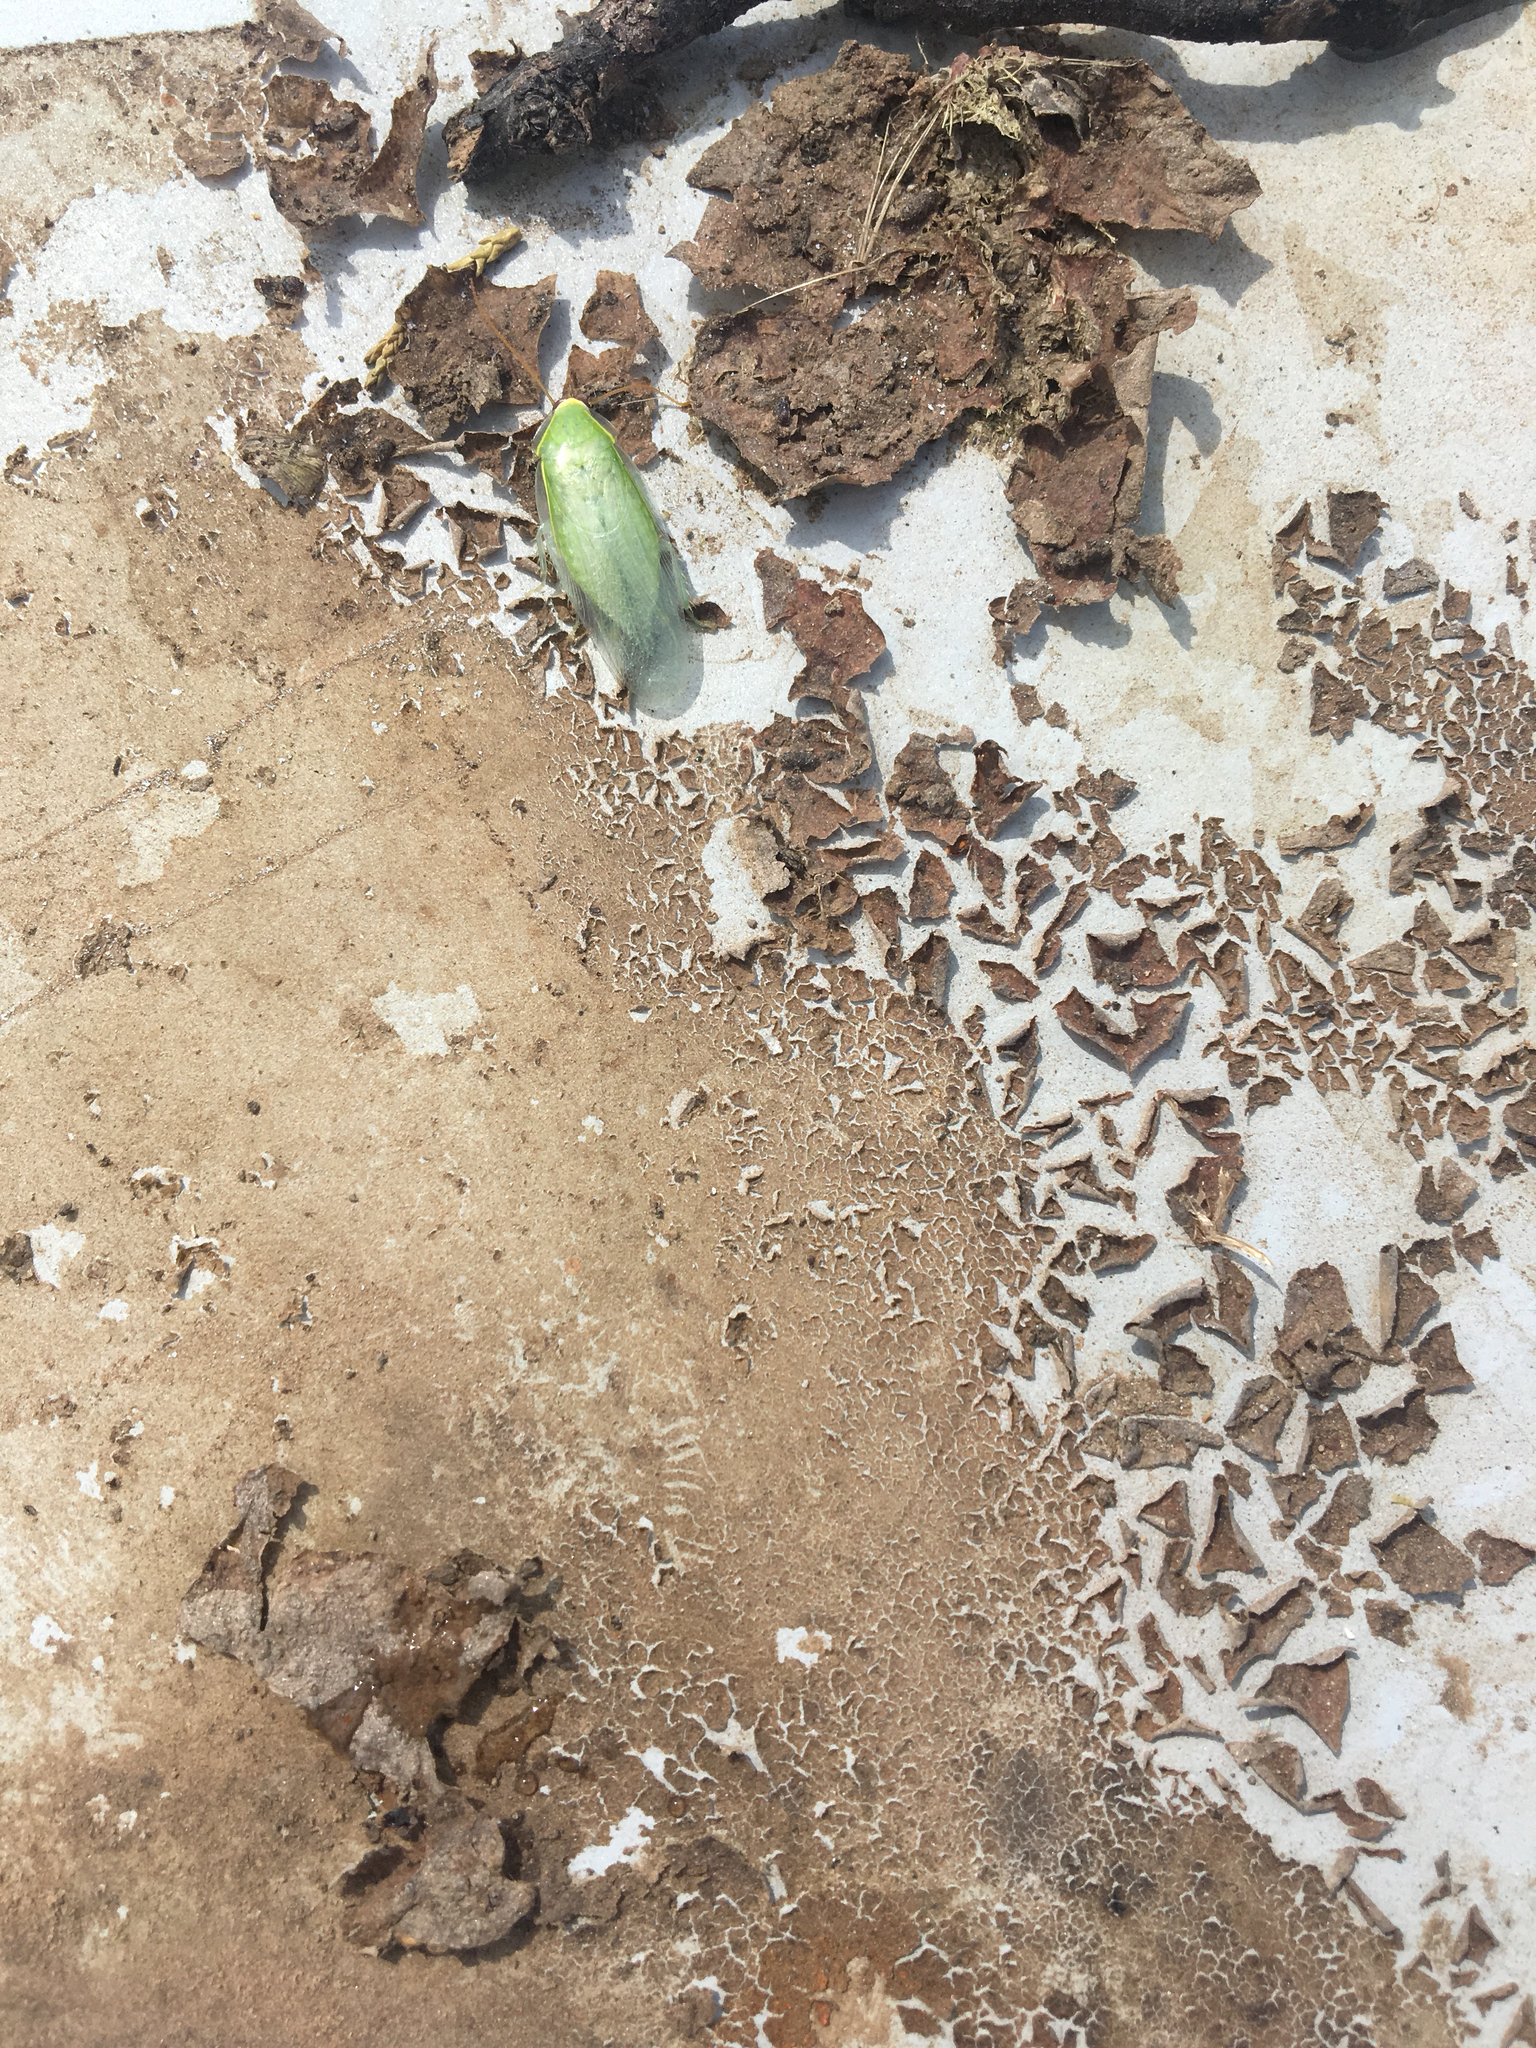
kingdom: Animalia
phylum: Arthropoda
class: Insecta
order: Blattodea
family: Blaberidae
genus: Panchlora
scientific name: Panchlora nivea
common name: Cuban cockroach
